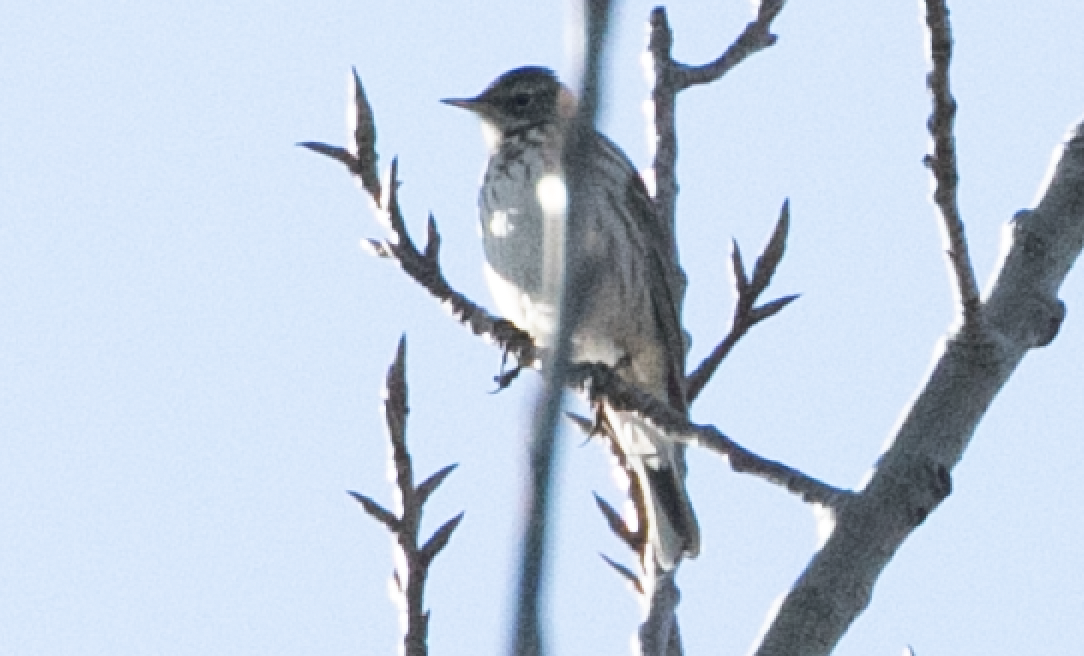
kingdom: Animalia
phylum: Chordata
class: Aves
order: Passeriformes
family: Motacillidae
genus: Anthus
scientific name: Anthus spinoletta
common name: Water pipit
